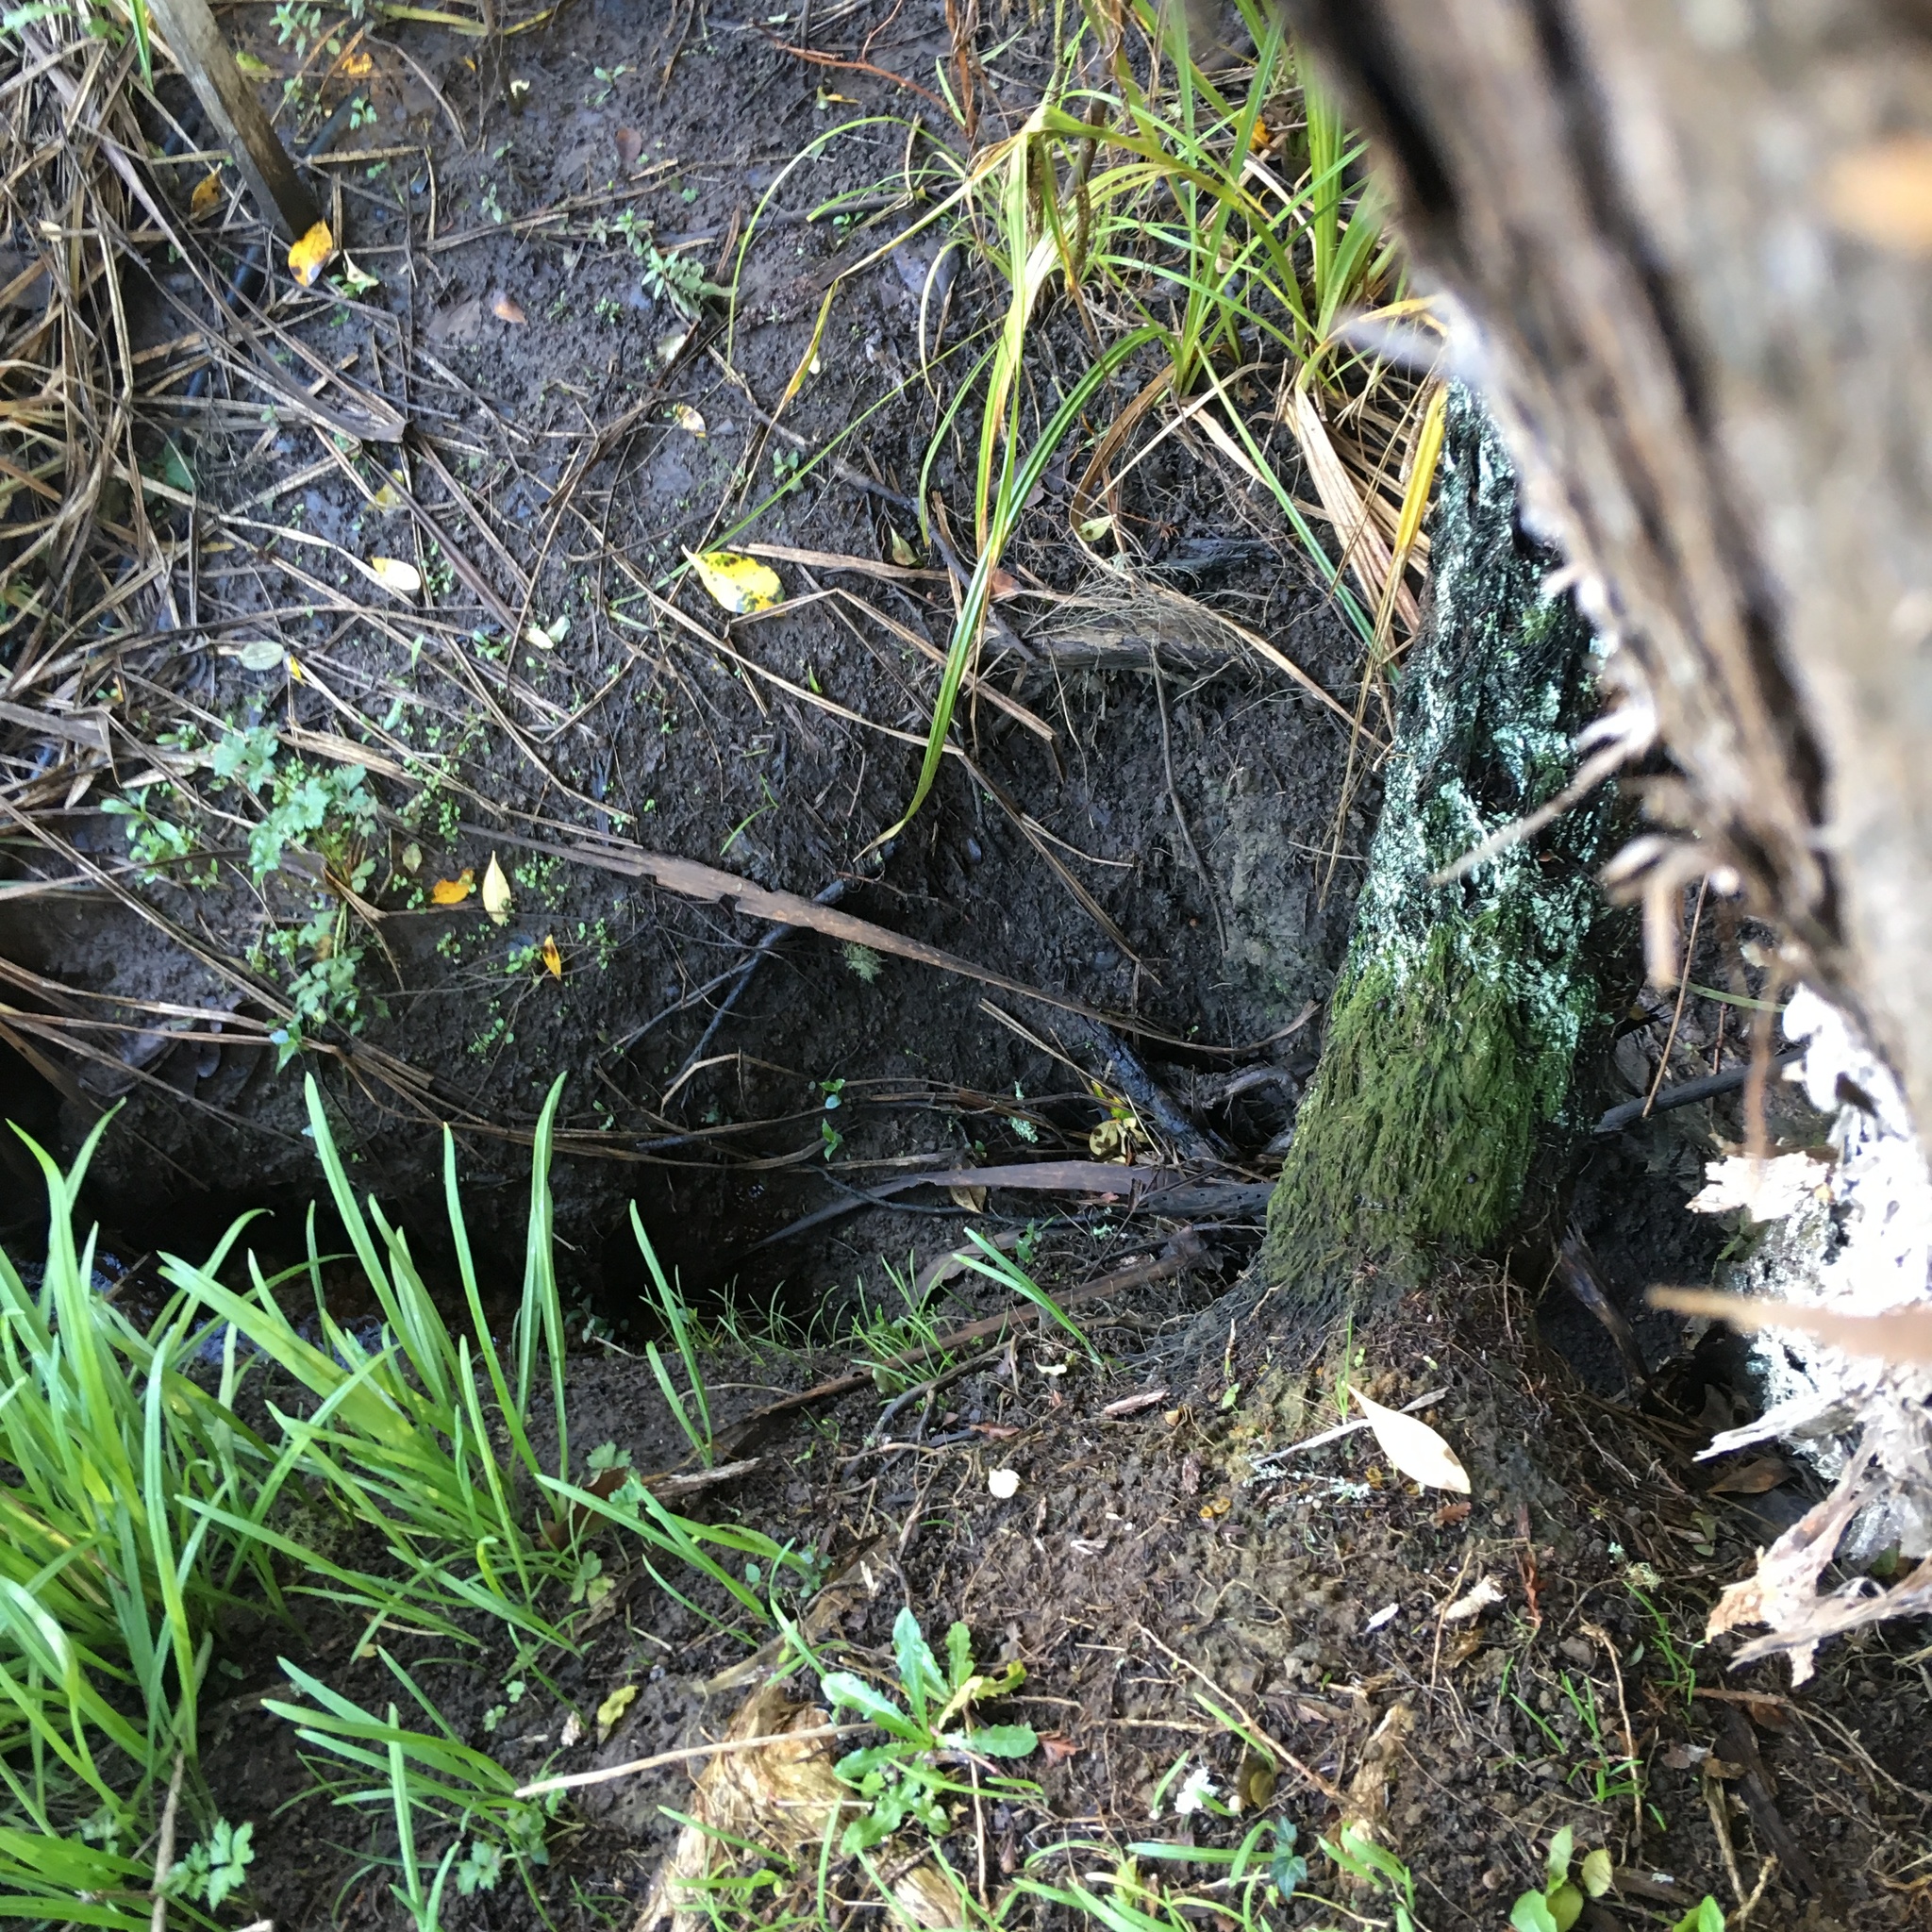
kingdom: Plantae
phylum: Tracheophyta
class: Magnoliopsida
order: Apiales
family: Araliaceae
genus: Hedera
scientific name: Hedera helix
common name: Ivy
